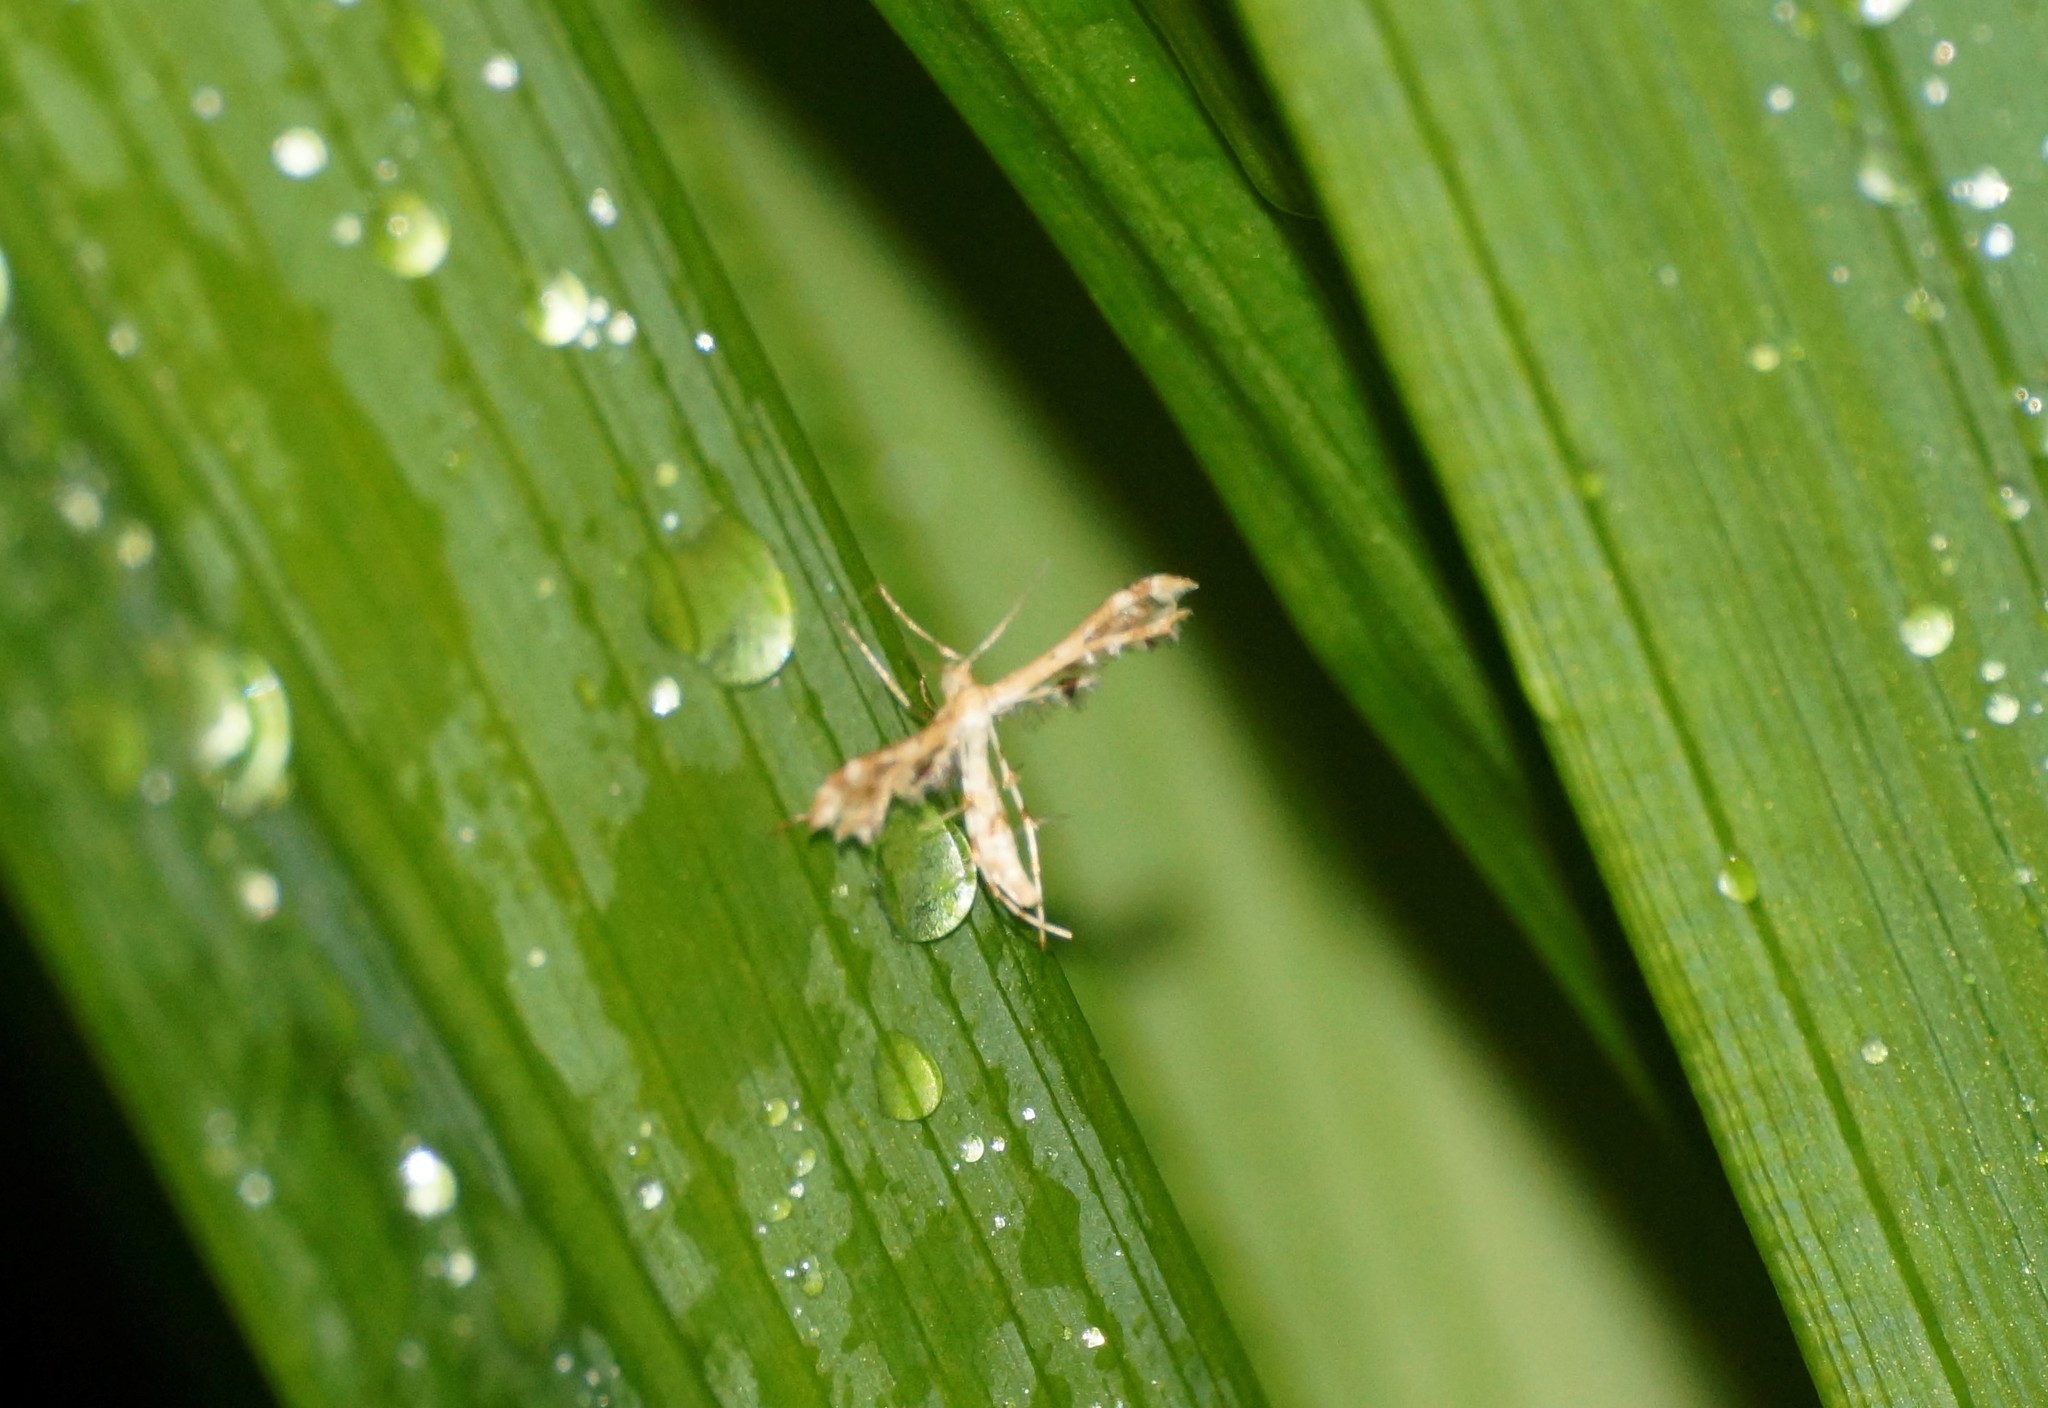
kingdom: Animalia
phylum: Arthropoda
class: Insecta
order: Lepidoptera
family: Pterophoridae
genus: Sphenarches
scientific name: Sphenarches anisodactylus
